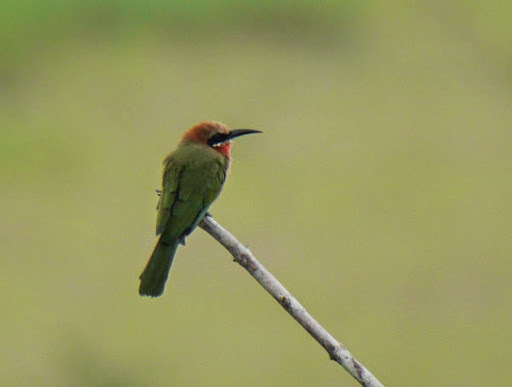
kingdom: Animalia
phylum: Chordata
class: Aves
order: Coraciiformes
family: Meropidae
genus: Merops
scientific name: Merops bullockoides
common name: White-fronted bee-eater
